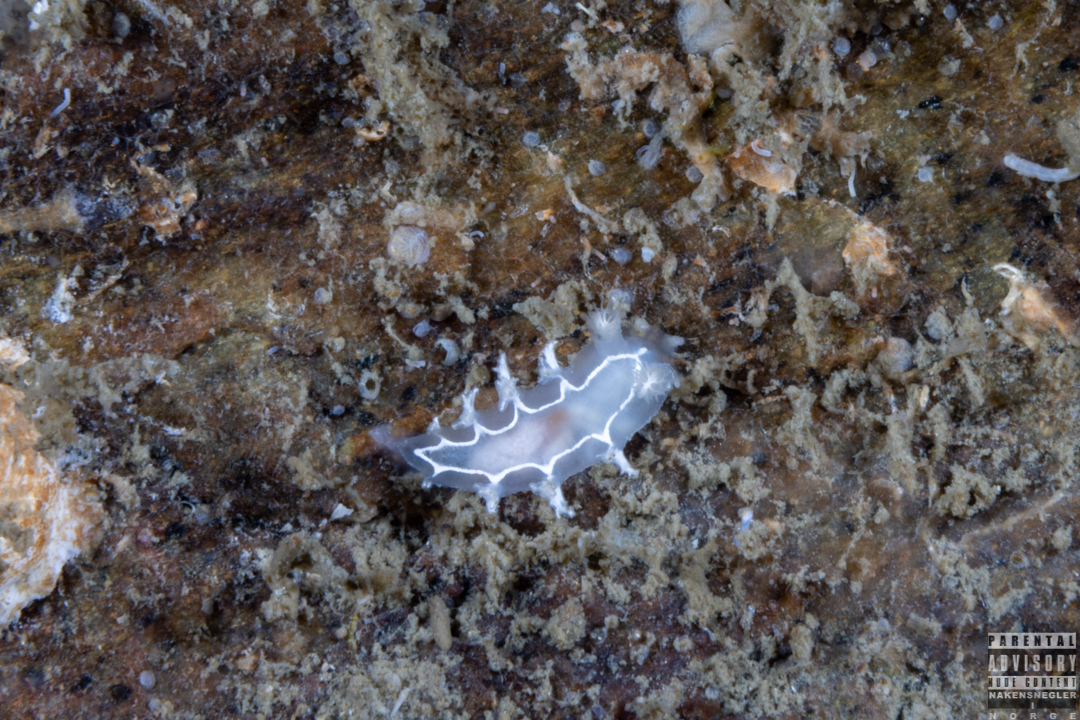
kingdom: Animalia
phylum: Mollusca
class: Gastropoda
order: Nudibranchia
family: Tritoniidae
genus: Duvaucelia
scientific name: Duvaucelia lineata
